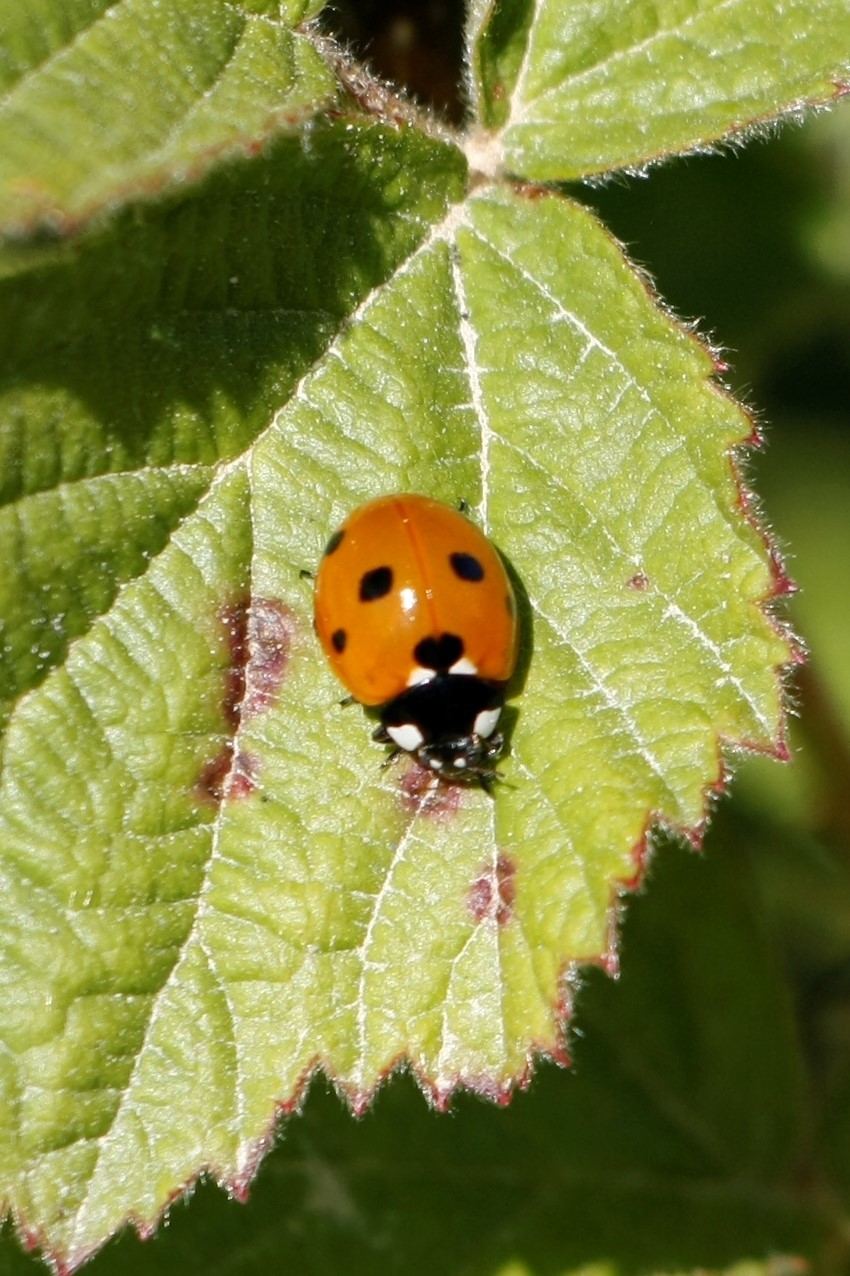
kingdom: Animalia
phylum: Arthropoda
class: Insecta
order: Coleoptera
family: Coccinellidae
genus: Coccinella
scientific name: Coccinella septempunctata
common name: Sevenspotted lady beetle
